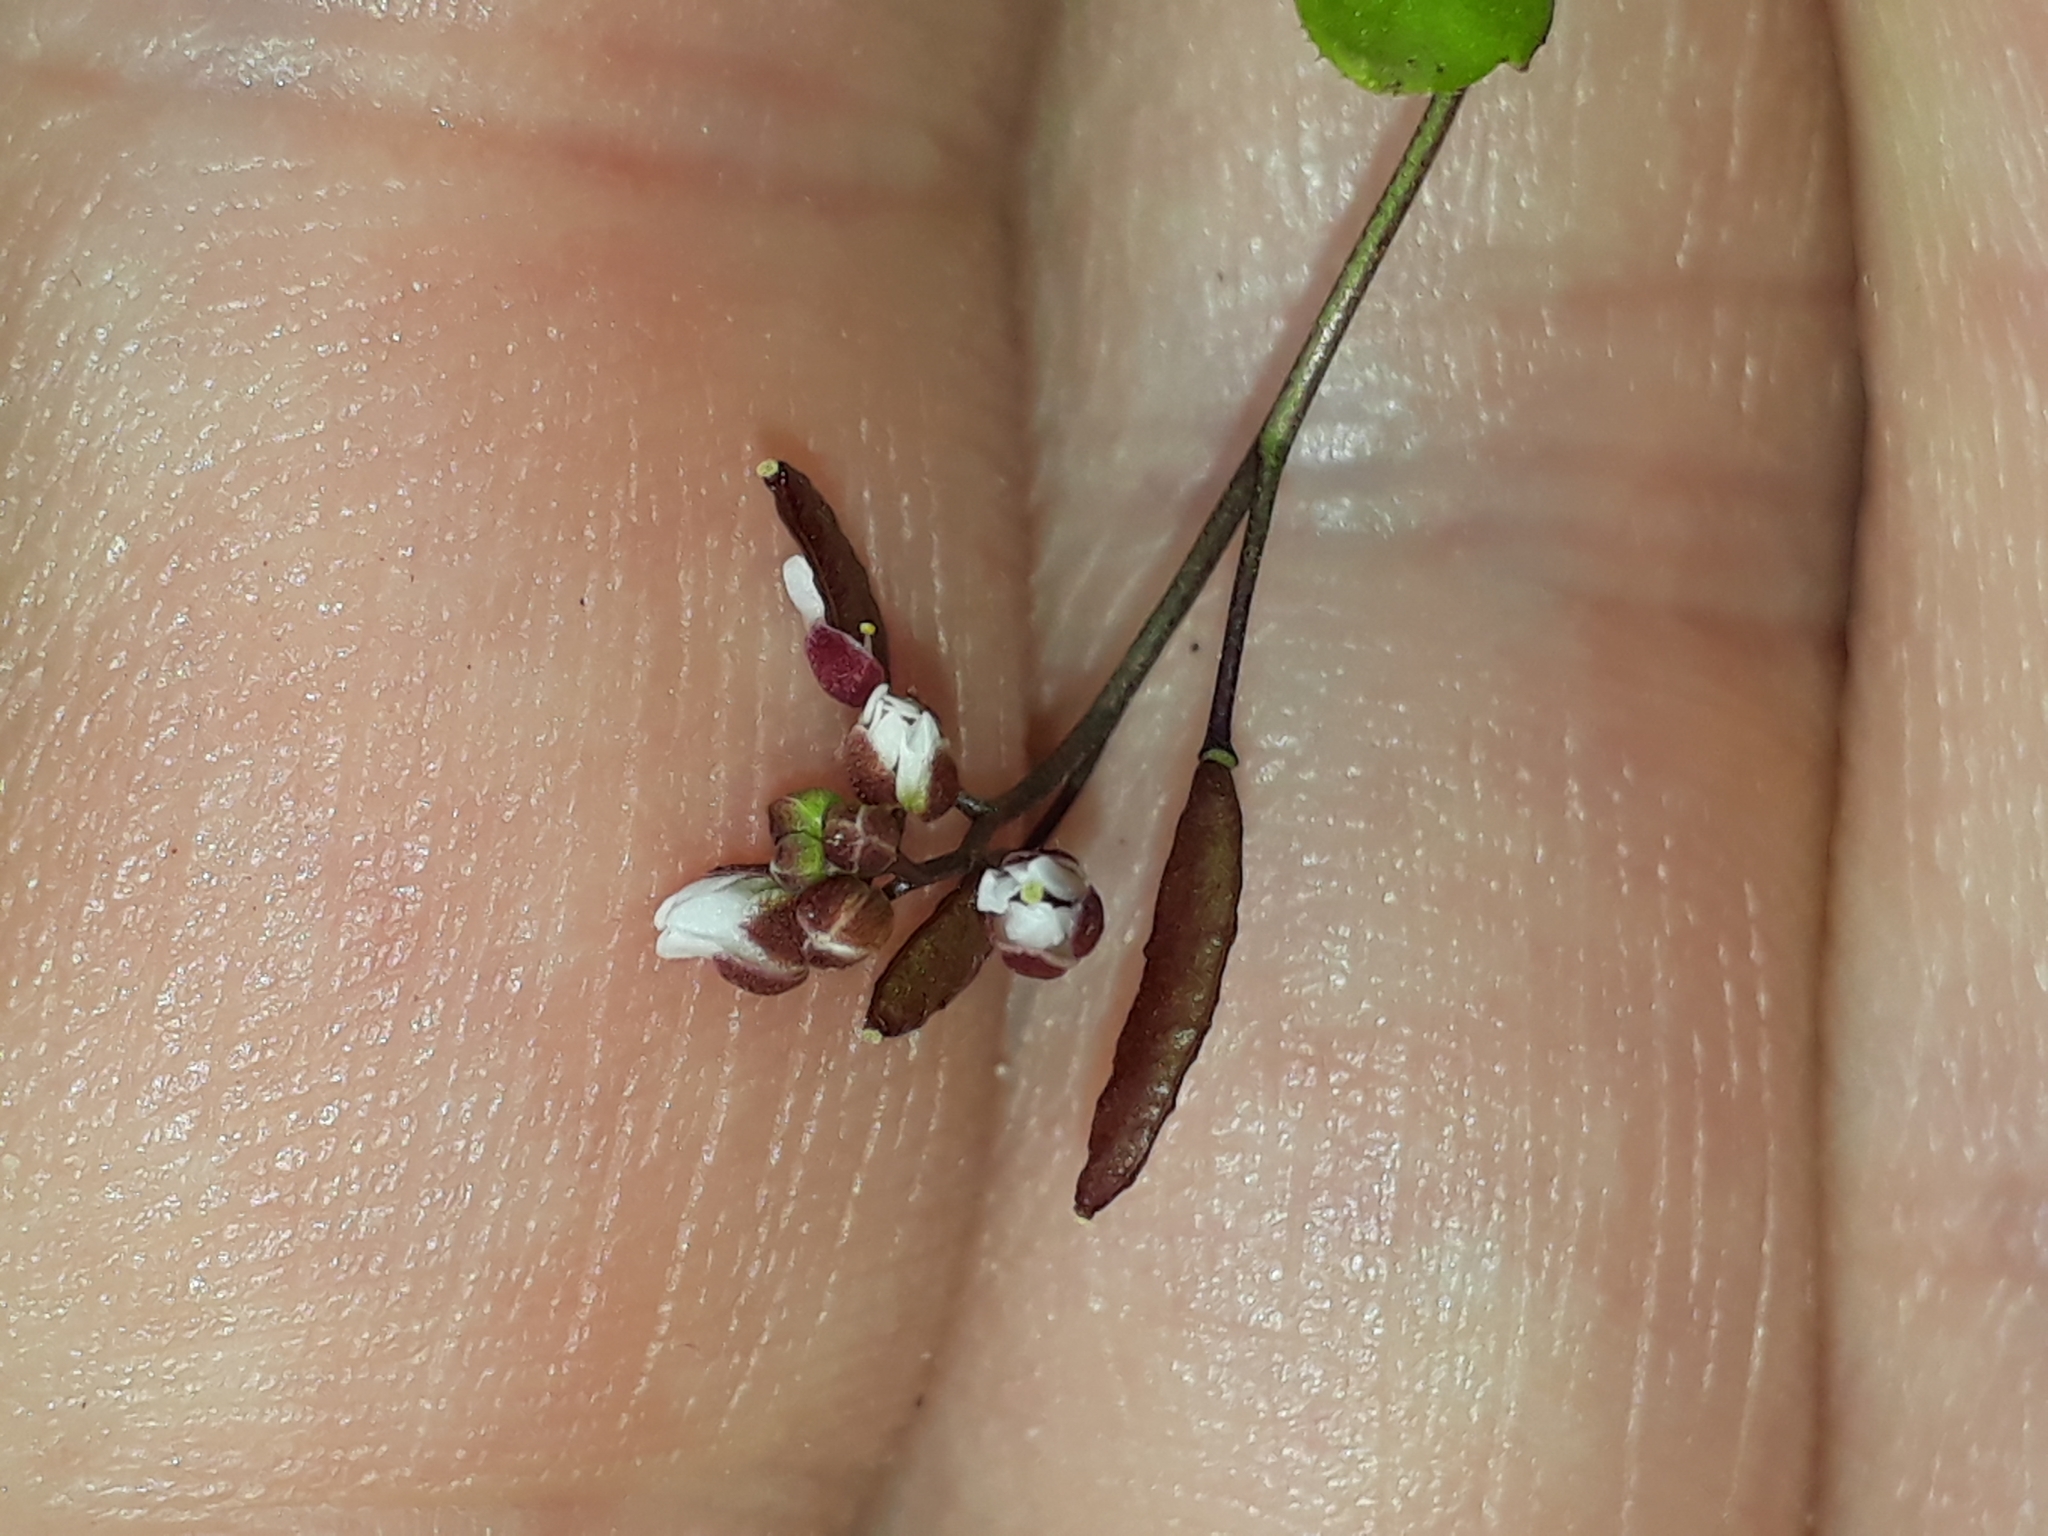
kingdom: Plantae
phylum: Tracheophyta
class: Magnoliopsida
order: Brassicales
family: Brassicaceae
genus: Draba
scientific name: Draba verna
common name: Spring draba
